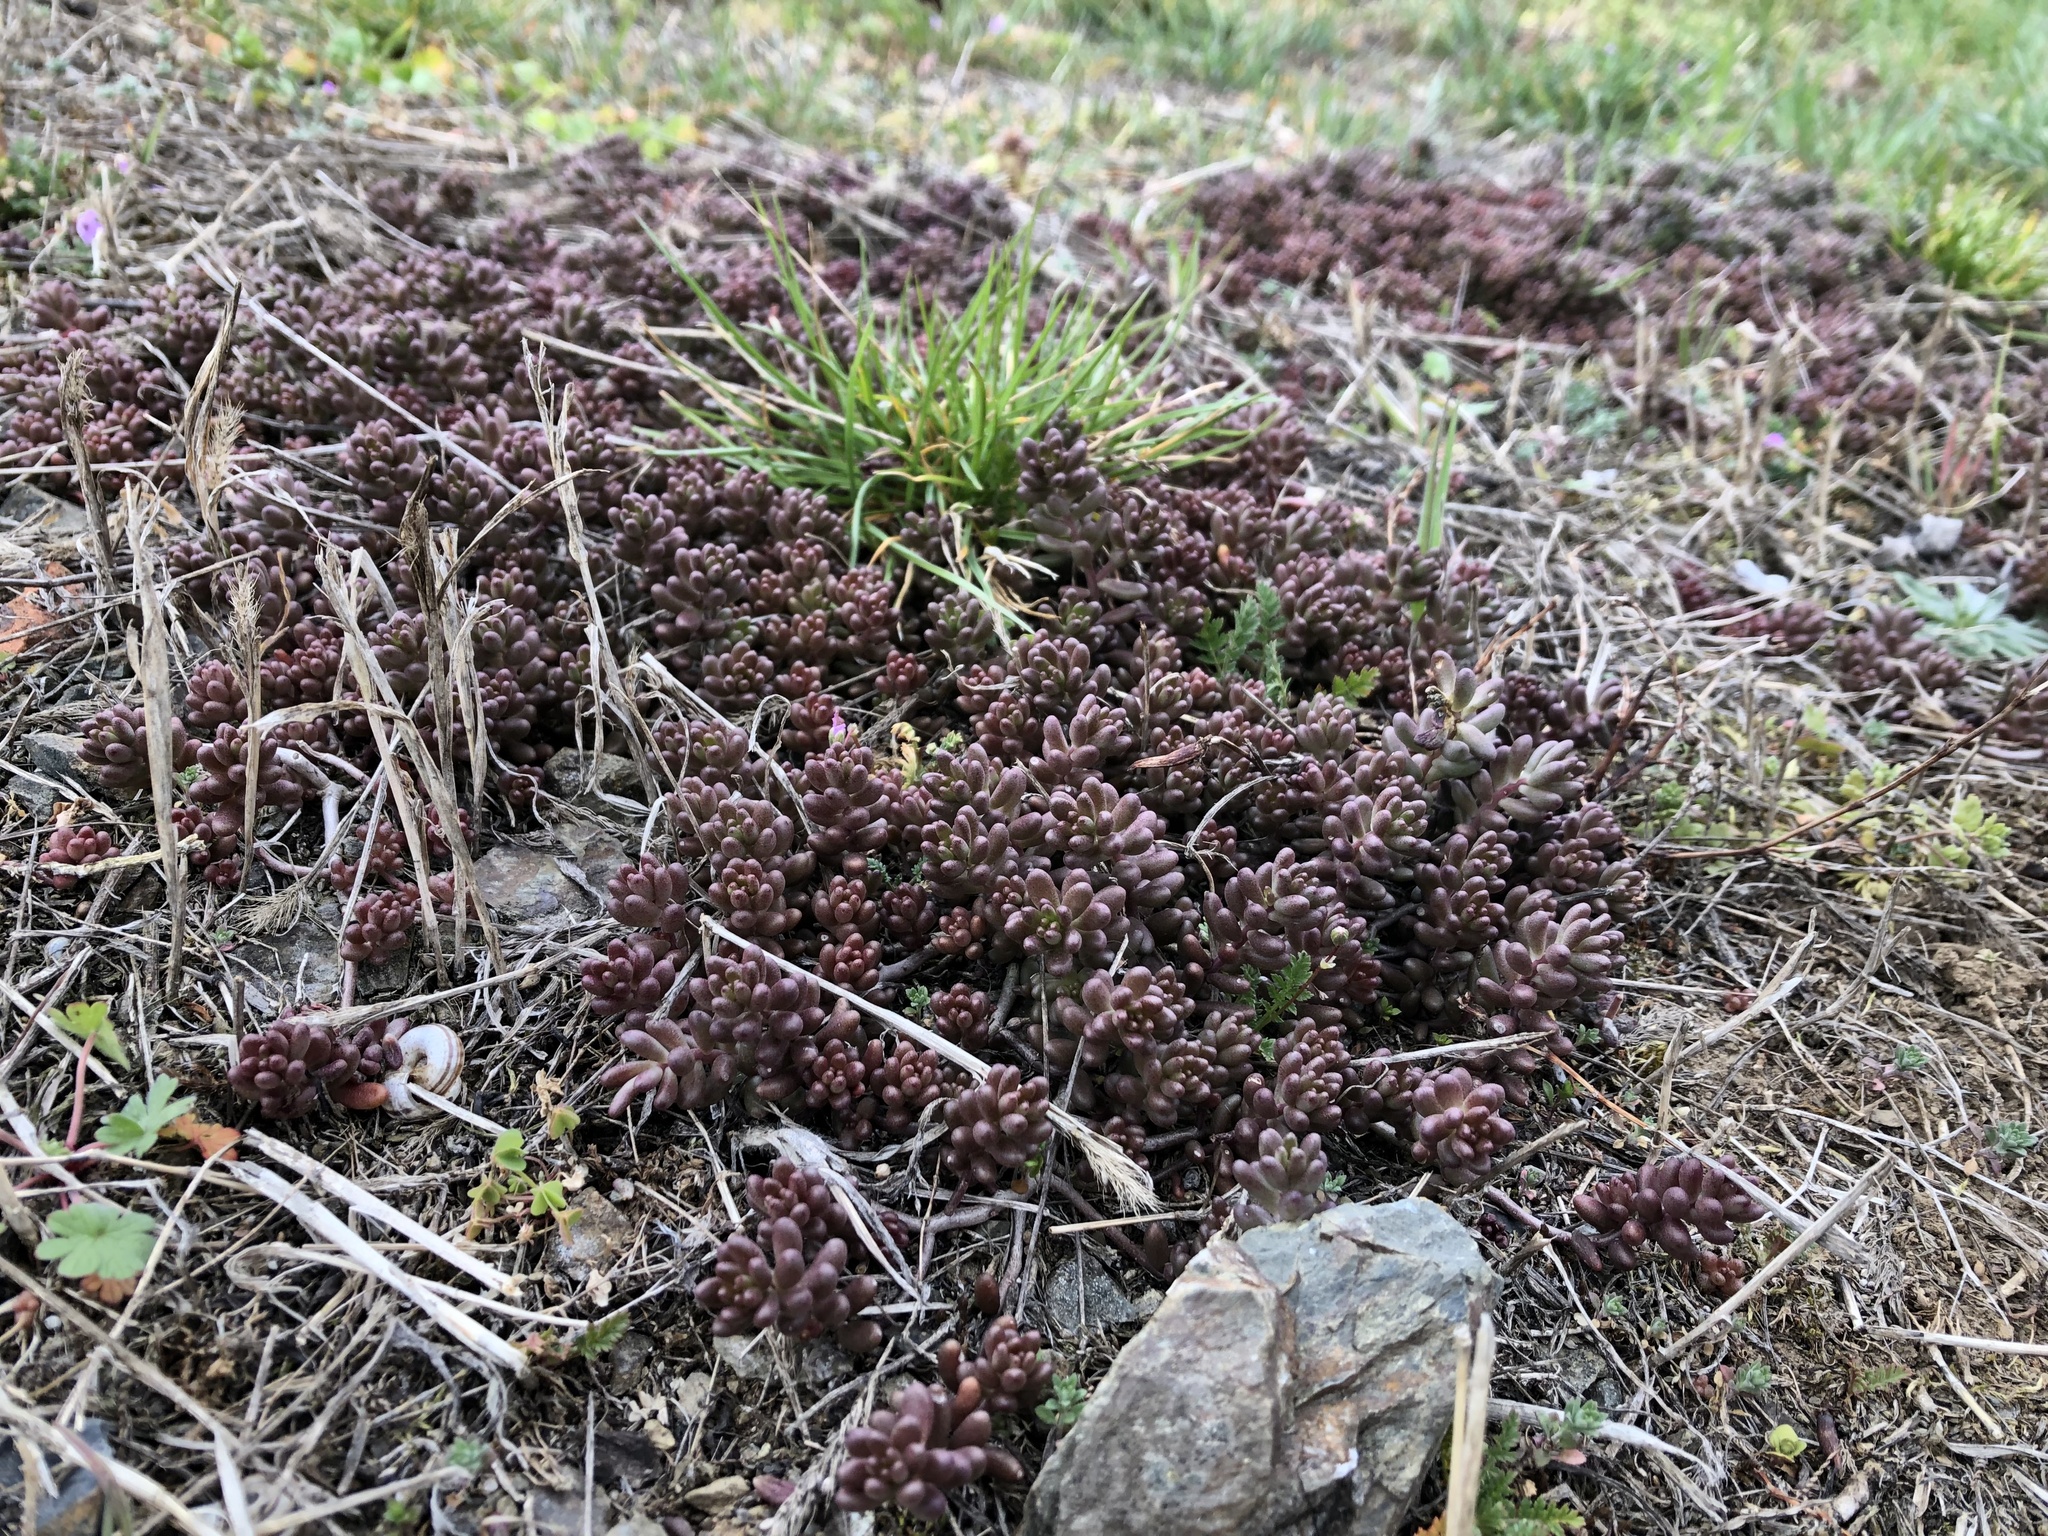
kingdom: Plantae
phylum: Tracheophyta
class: Magnoliopsida
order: Saxifragales
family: Crassulaceae
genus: Sedum
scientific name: Sedum album
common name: White stonecrop
